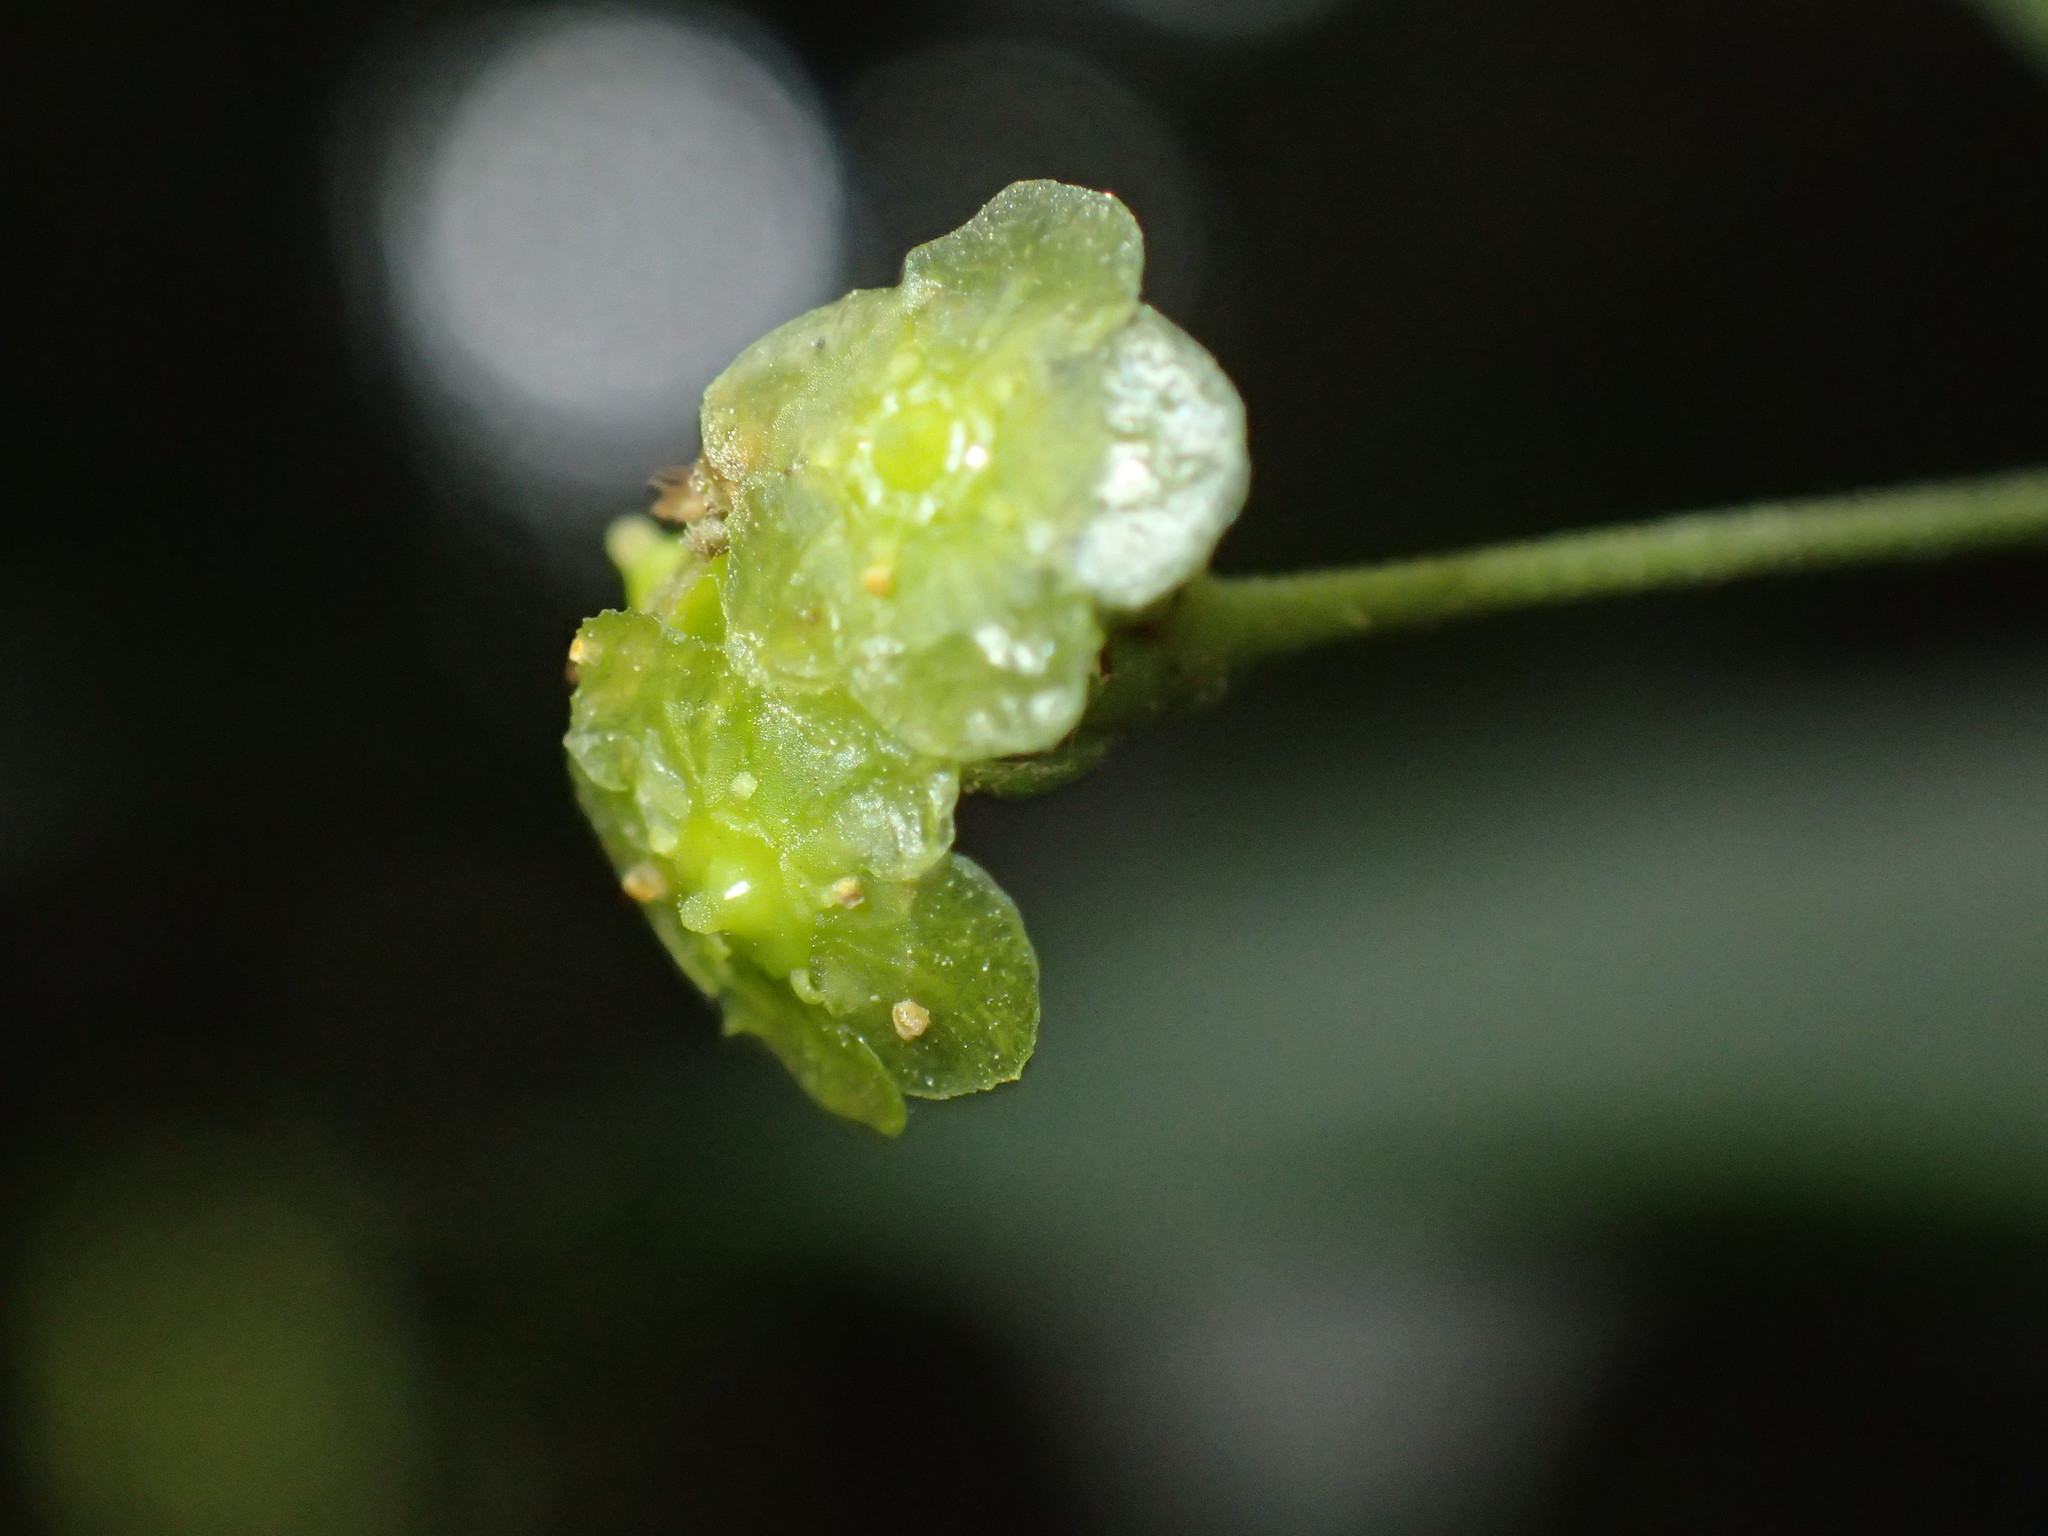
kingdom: Plantae
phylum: Tracheophyta
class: Magnoliopsida
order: Celastrales
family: Celastraceae
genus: Gymnosporia
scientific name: Gymnosporia peduncularis
